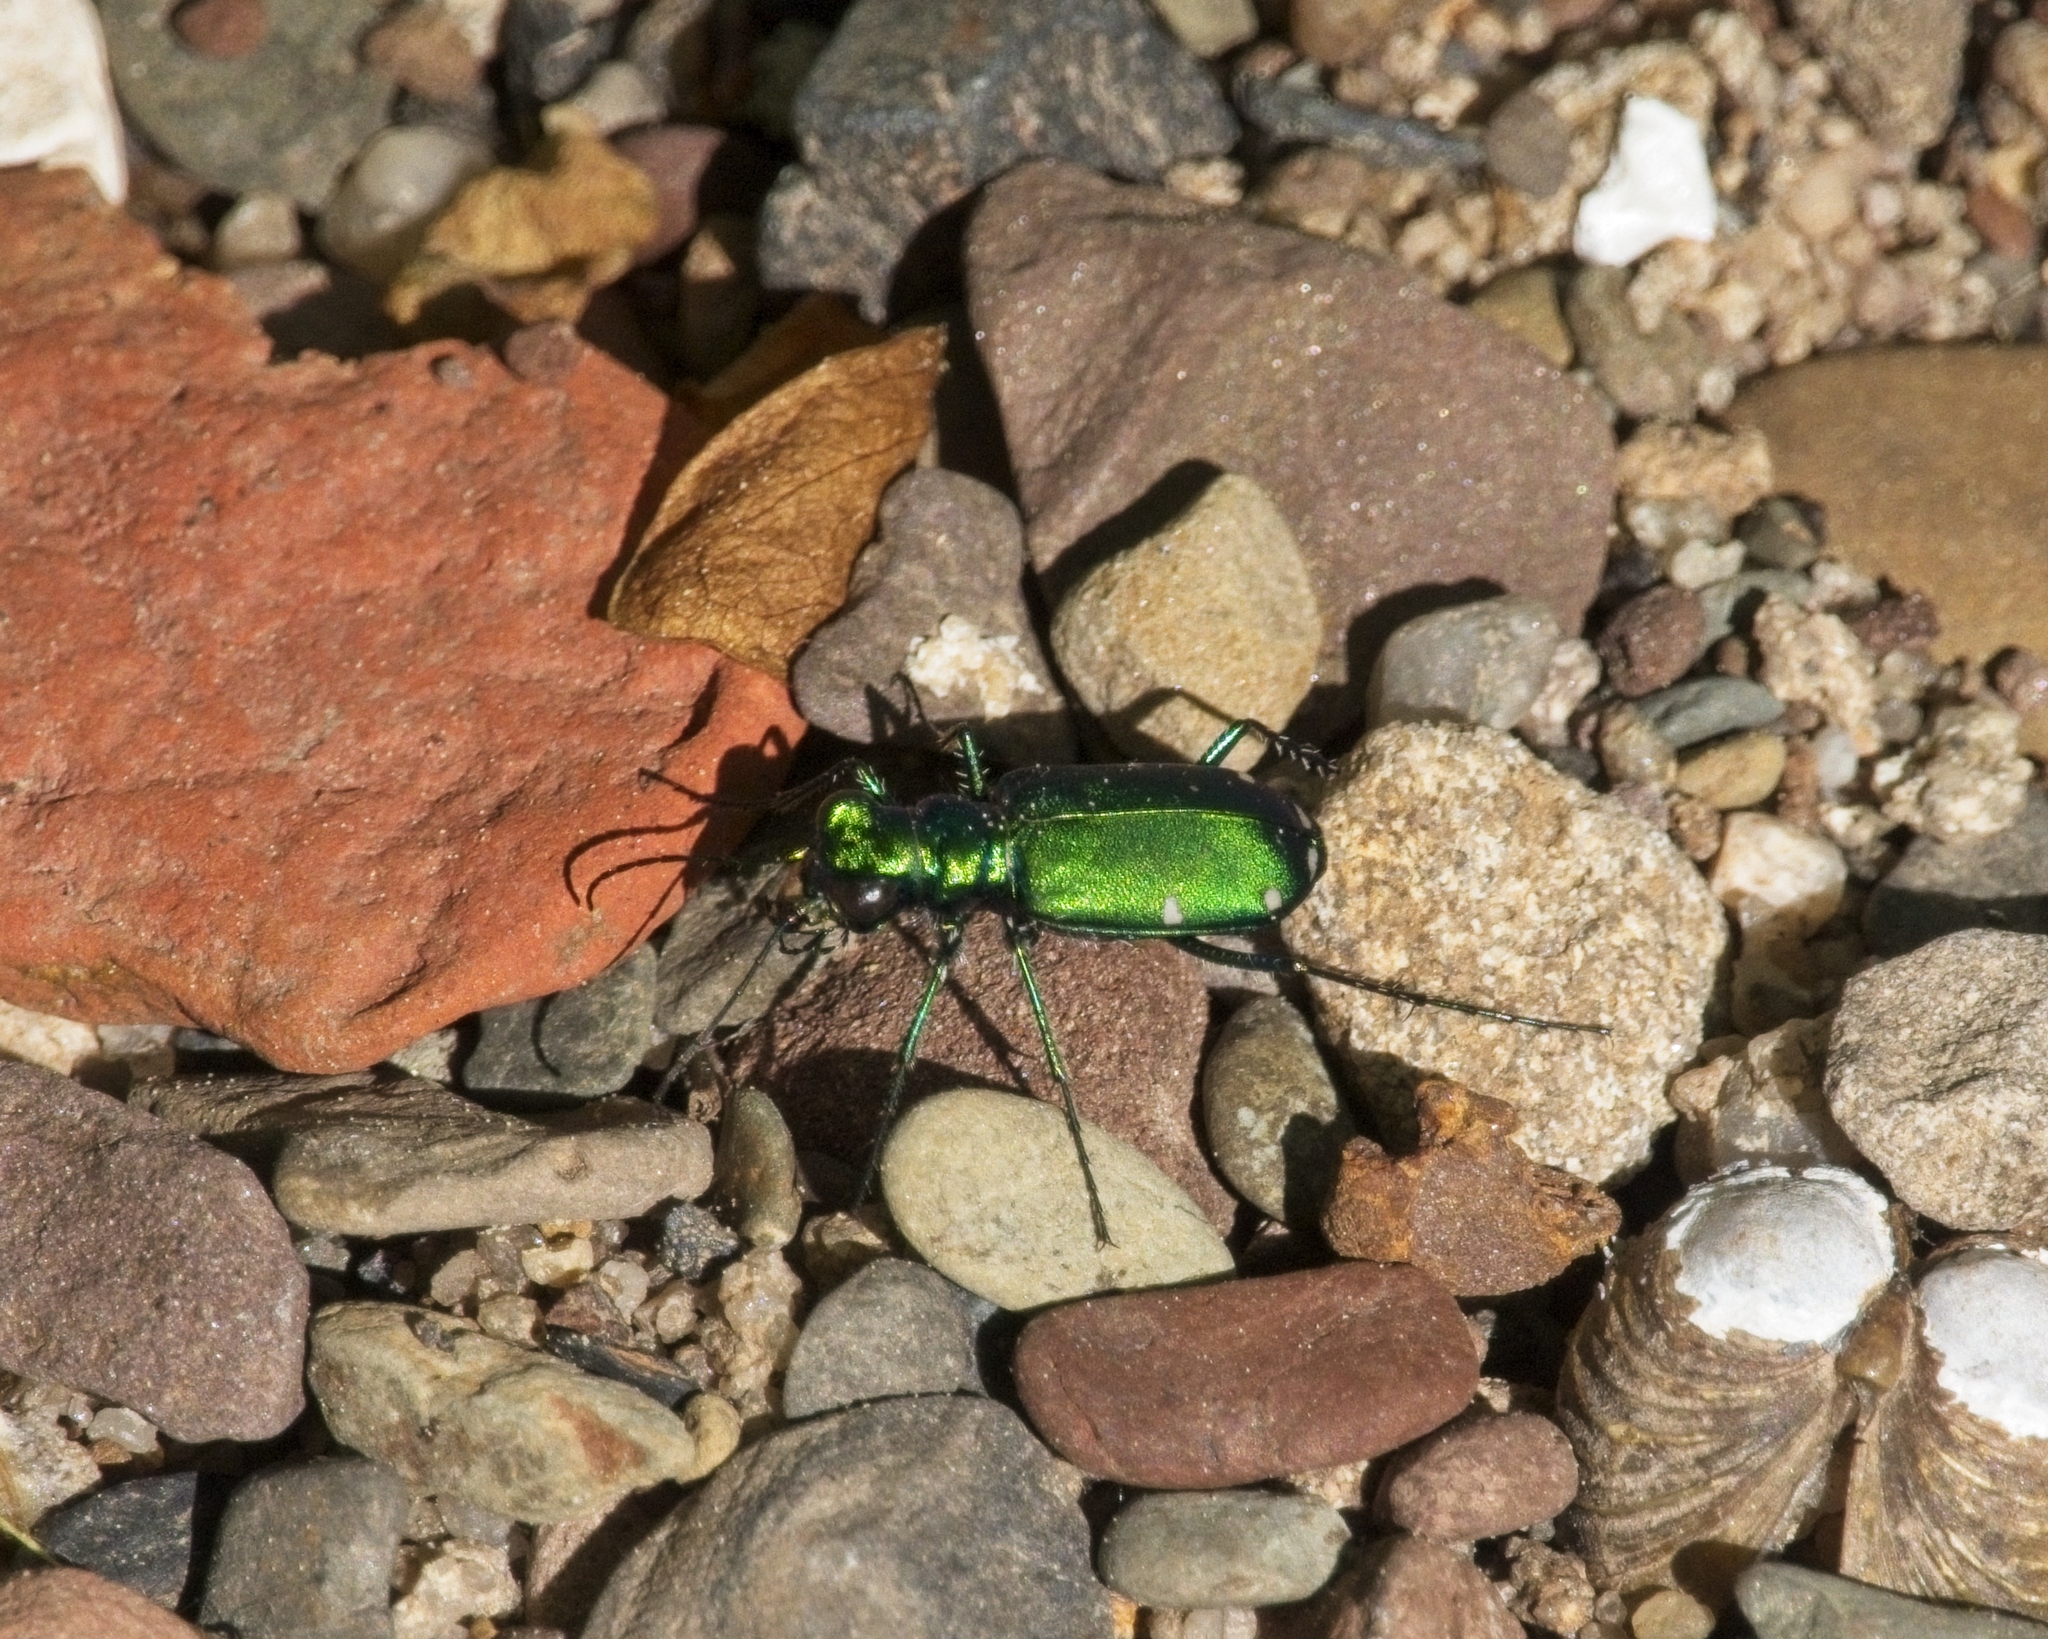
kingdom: Animalia
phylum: Arthropoda
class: Insecta
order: Coleoptera
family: Carabidae
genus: Cicindela
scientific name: Cicindela sexguttata
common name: Six-spotted tiger beetle
